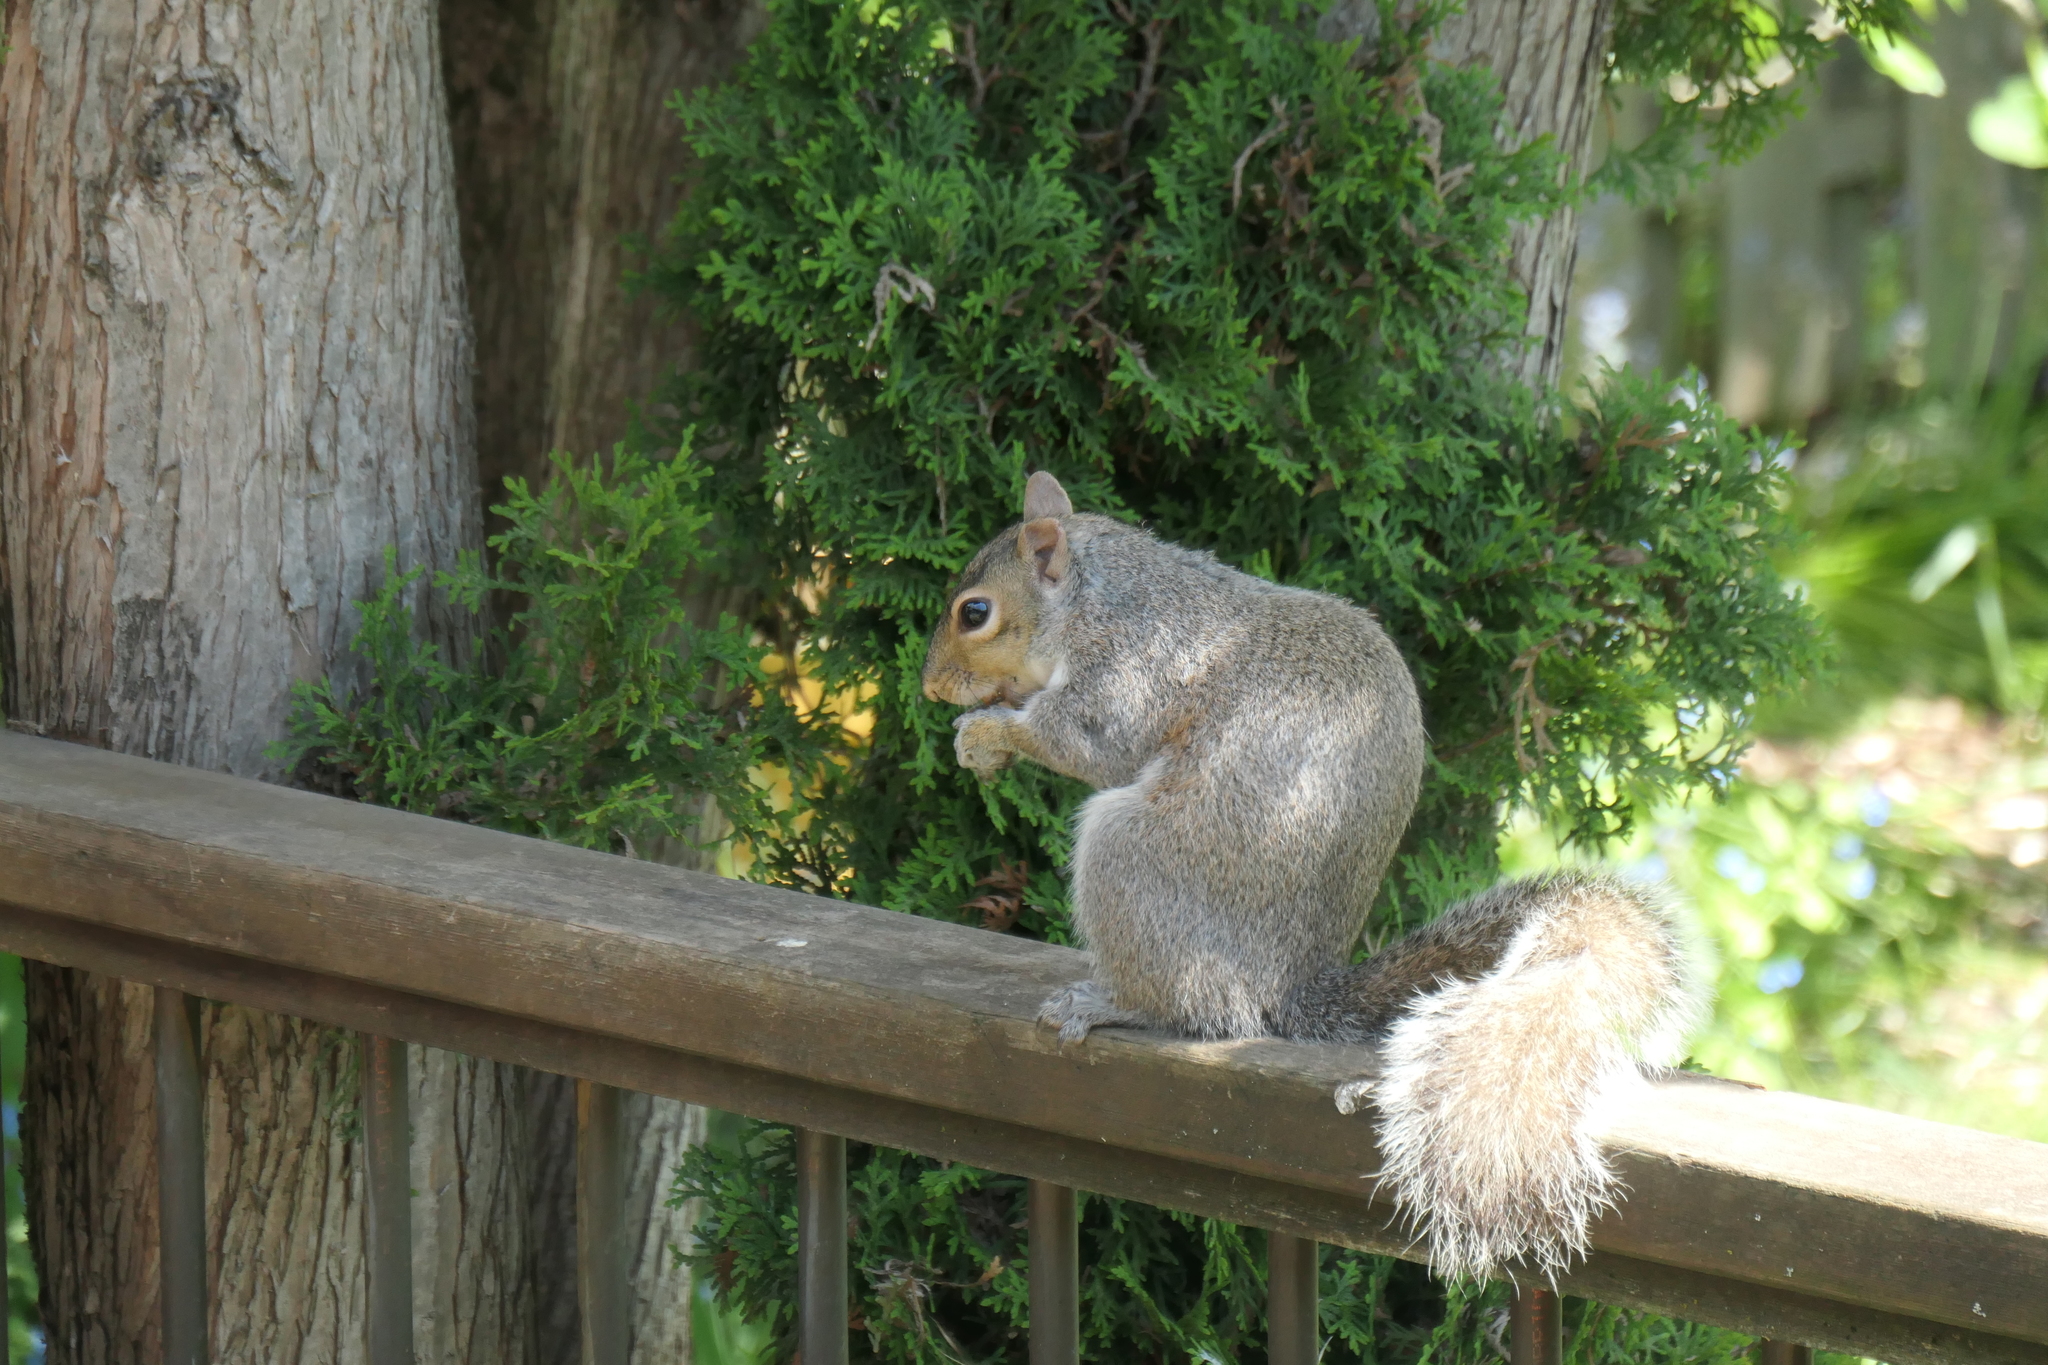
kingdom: Animalia
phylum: Chordata
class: Mammalia
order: Rodentia
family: Sciuridae
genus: Sciurus
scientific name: Sciurus carolinensis
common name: Eastern gray squirrel
